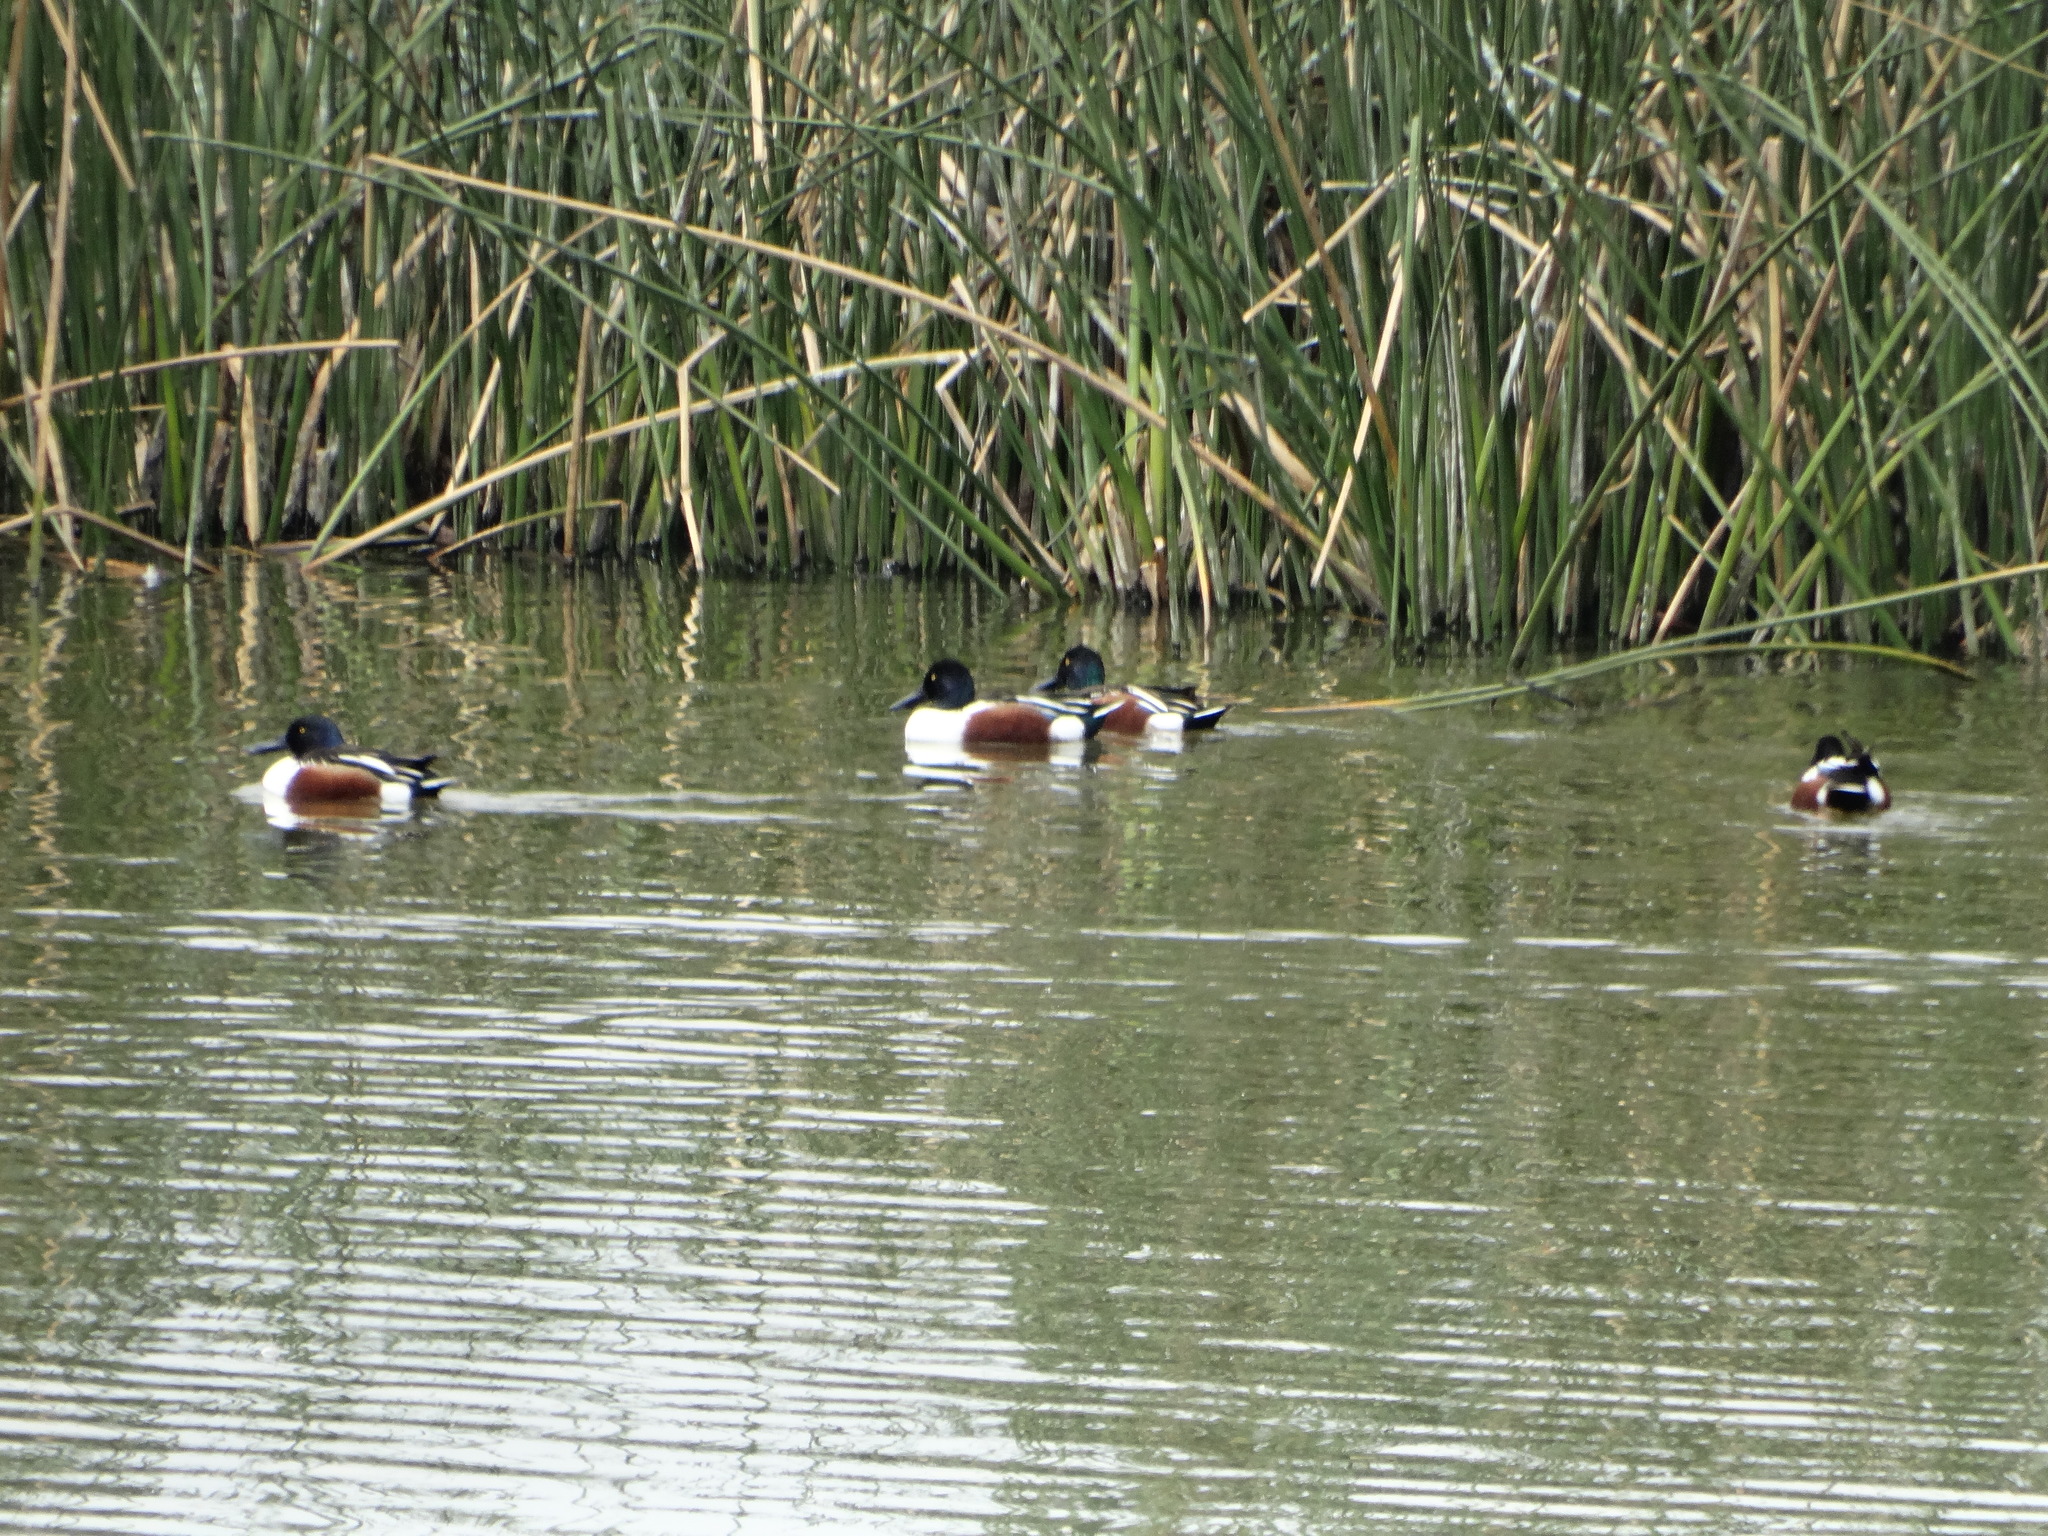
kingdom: Animalia
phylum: Chordata
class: Aves
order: Anseriformes
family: Anatidae
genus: Spatula
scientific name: Spatula clypeata
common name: Northern shoveler
